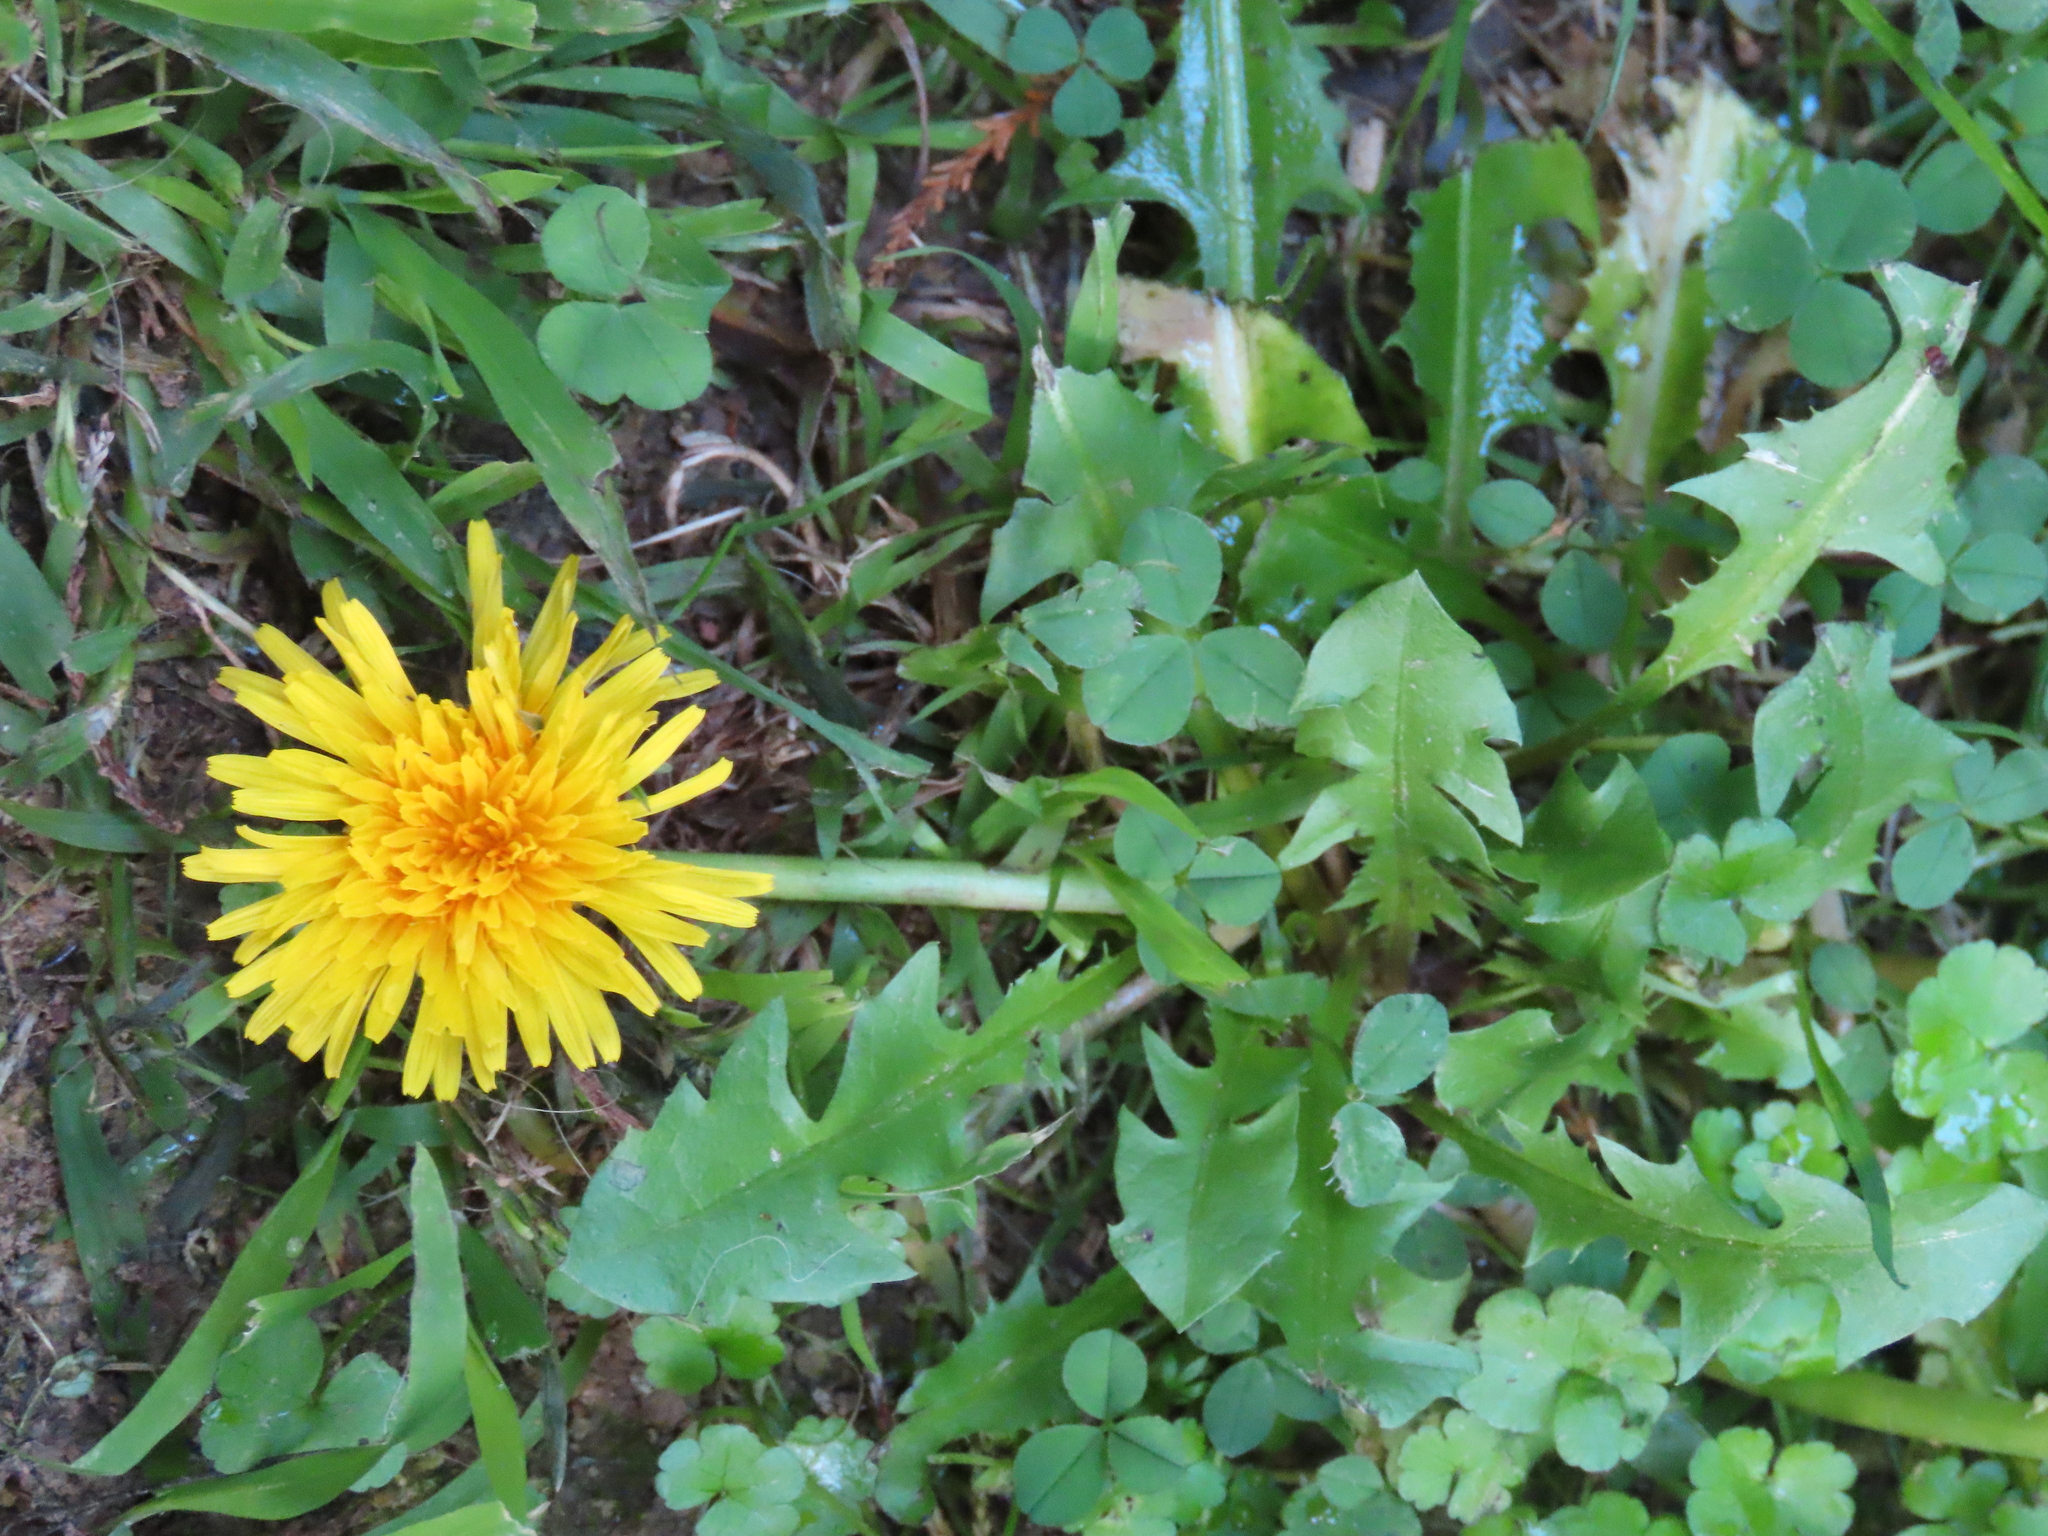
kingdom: Plantae
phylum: Tracheophyta
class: Magnoliopsida
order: Asterales
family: Asteraceae
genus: Taraxacum
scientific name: Taraxacum officinale
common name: Common dandelion
